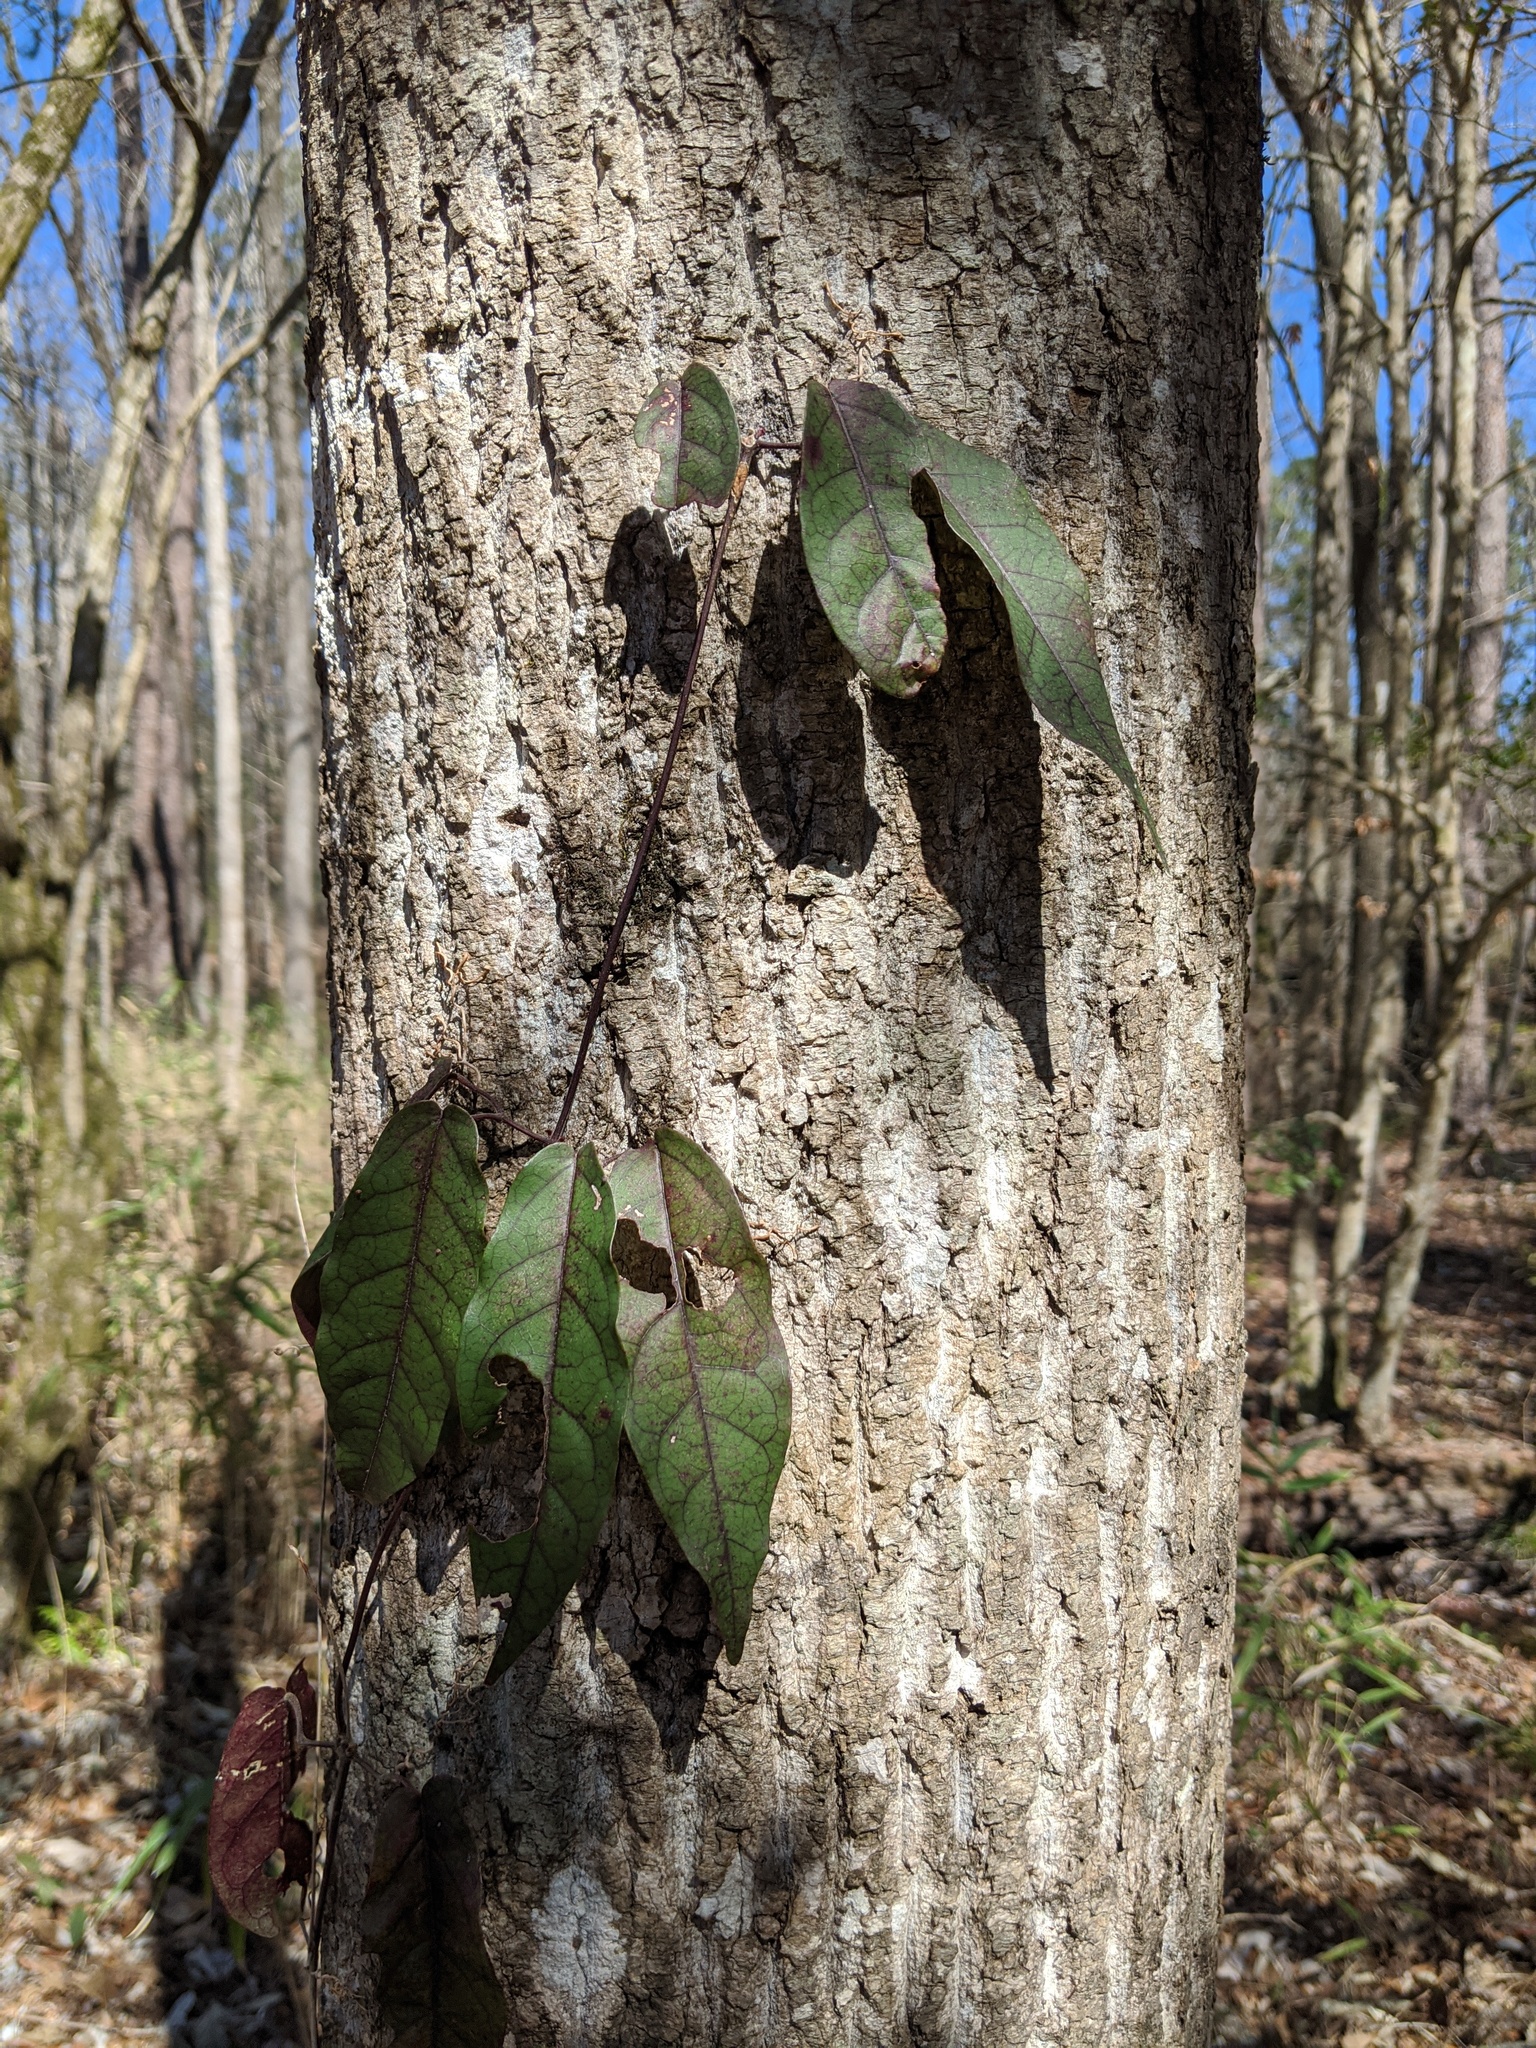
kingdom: Plantae
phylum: Tracheophyta
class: Magnoliopsida
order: Lamiales
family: Bignoniaceae
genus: Bignonia
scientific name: Bignonia capreolata
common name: Crossvine
